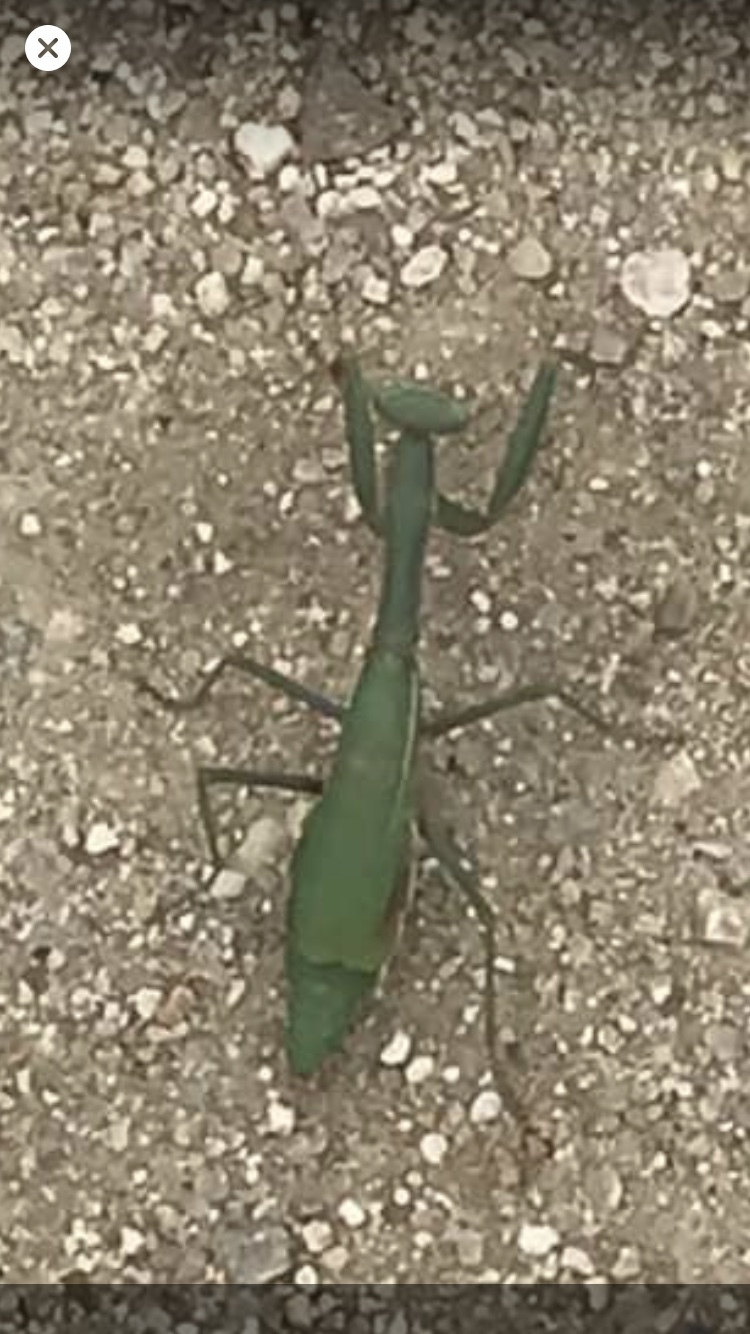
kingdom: Animalia
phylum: Arthropoda
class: Insecta
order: Mantodea
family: Eremiaphilidae
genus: Iris
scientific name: Iris oratoria
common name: Mediterranean mantis
